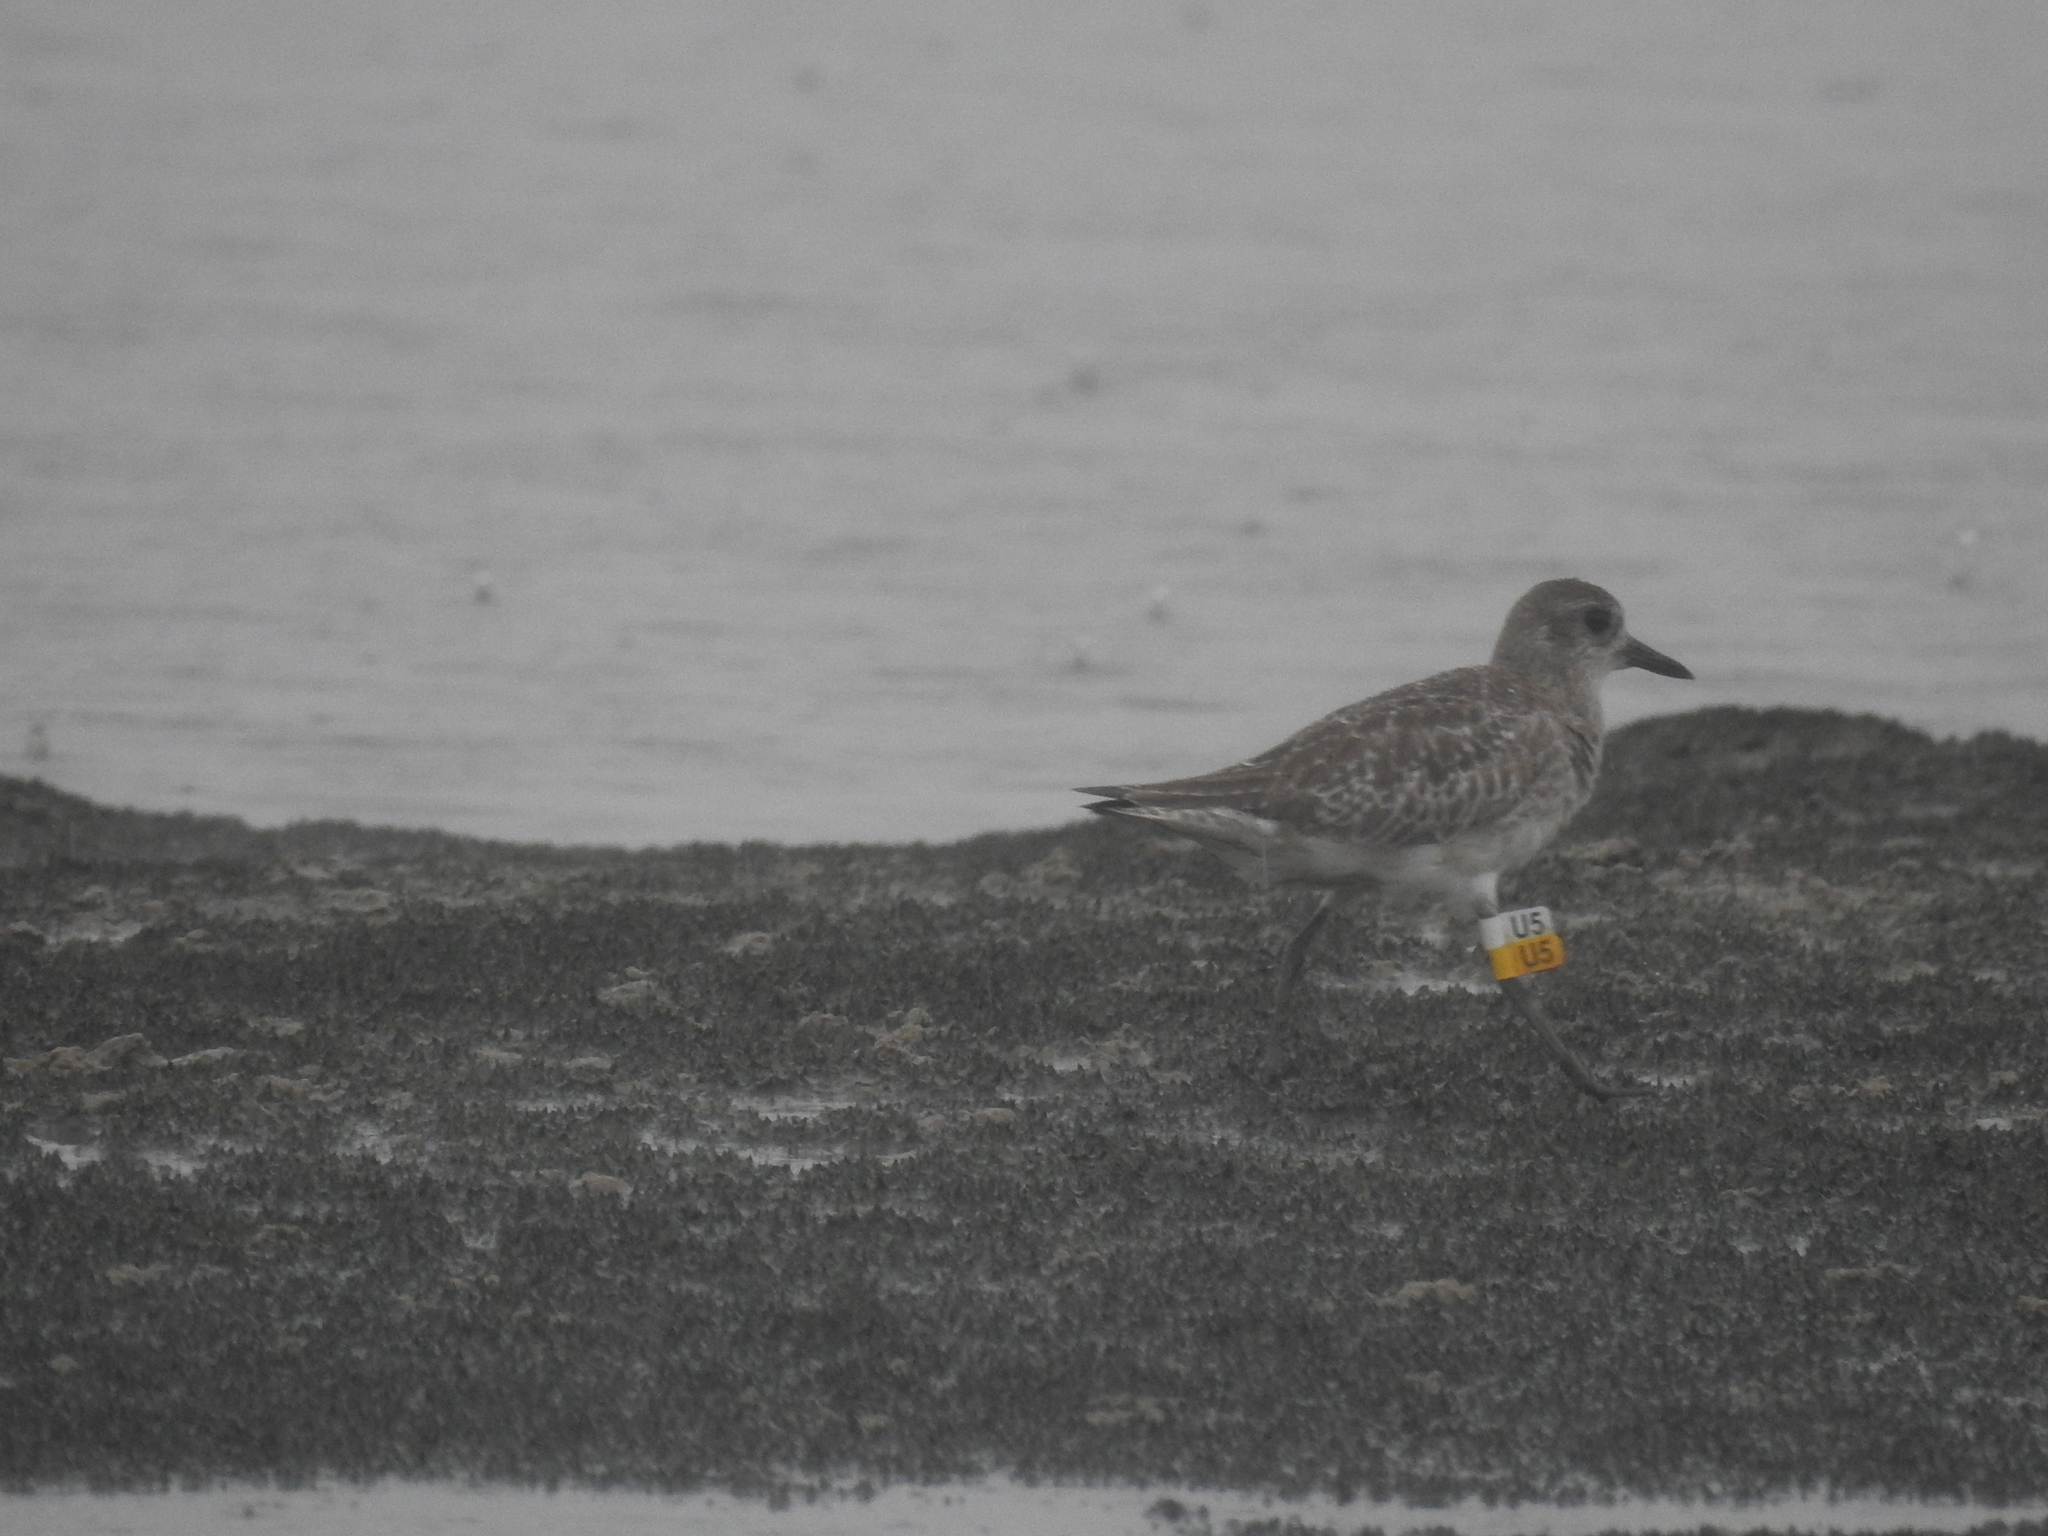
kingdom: Animalia
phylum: Chordata
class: Aves
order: Charadriiformes
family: Charadriidae
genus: Pluvialis
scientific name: Pluvialis squatarola
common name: Grey plover
